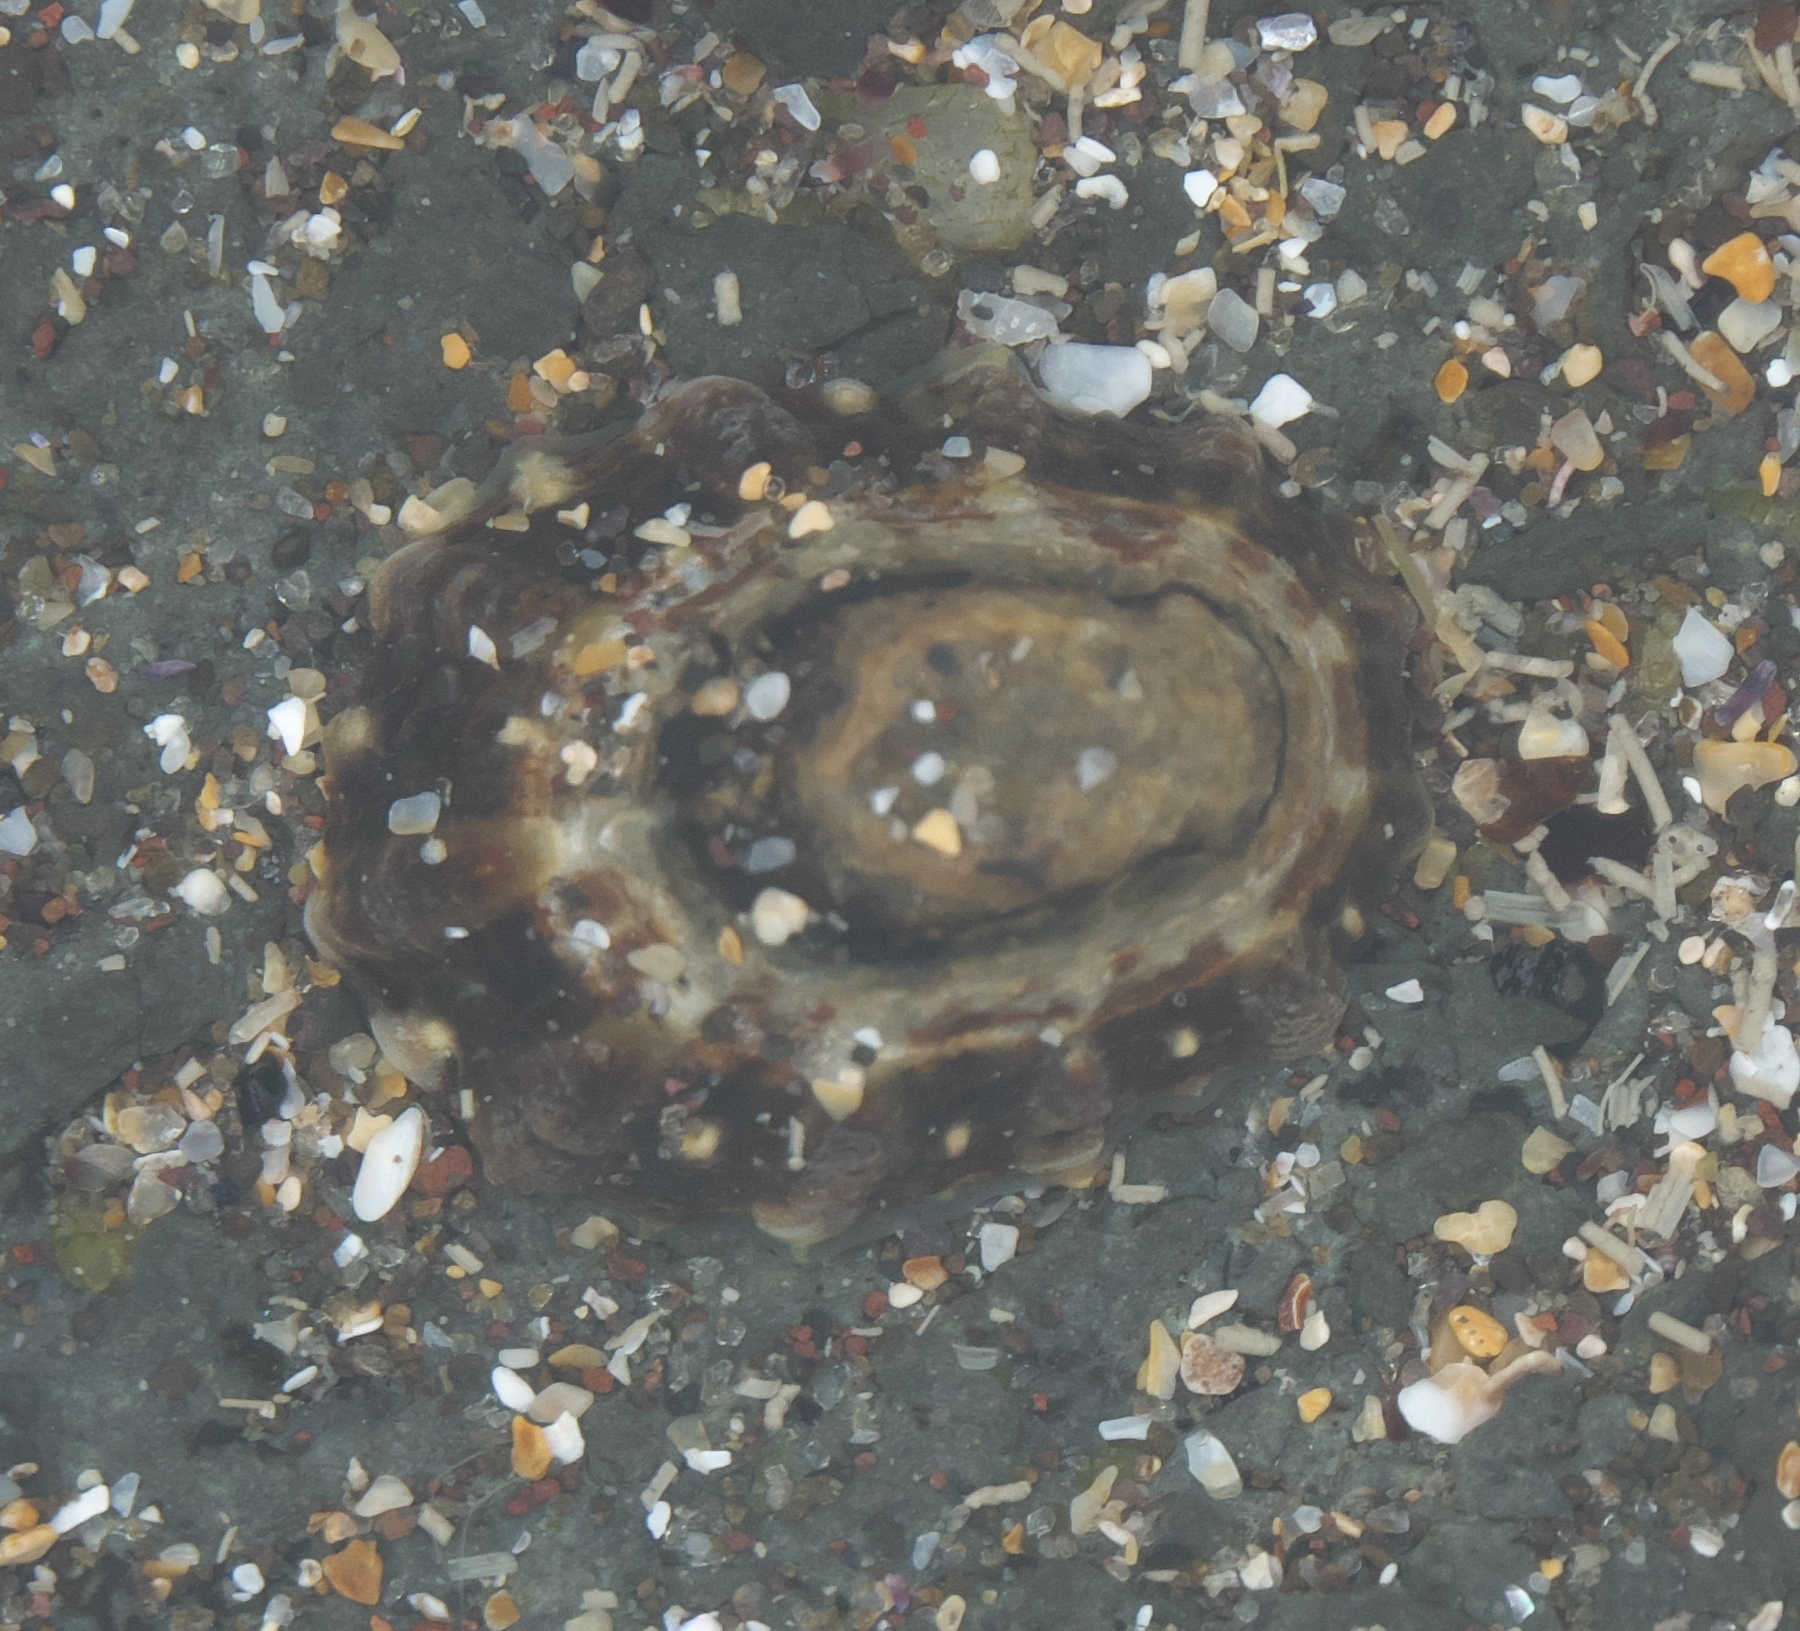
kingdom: Animalia
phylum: Mollusca
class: Gastropoda
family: Nacellidae
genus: Cellana
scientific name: Cellana ornata
